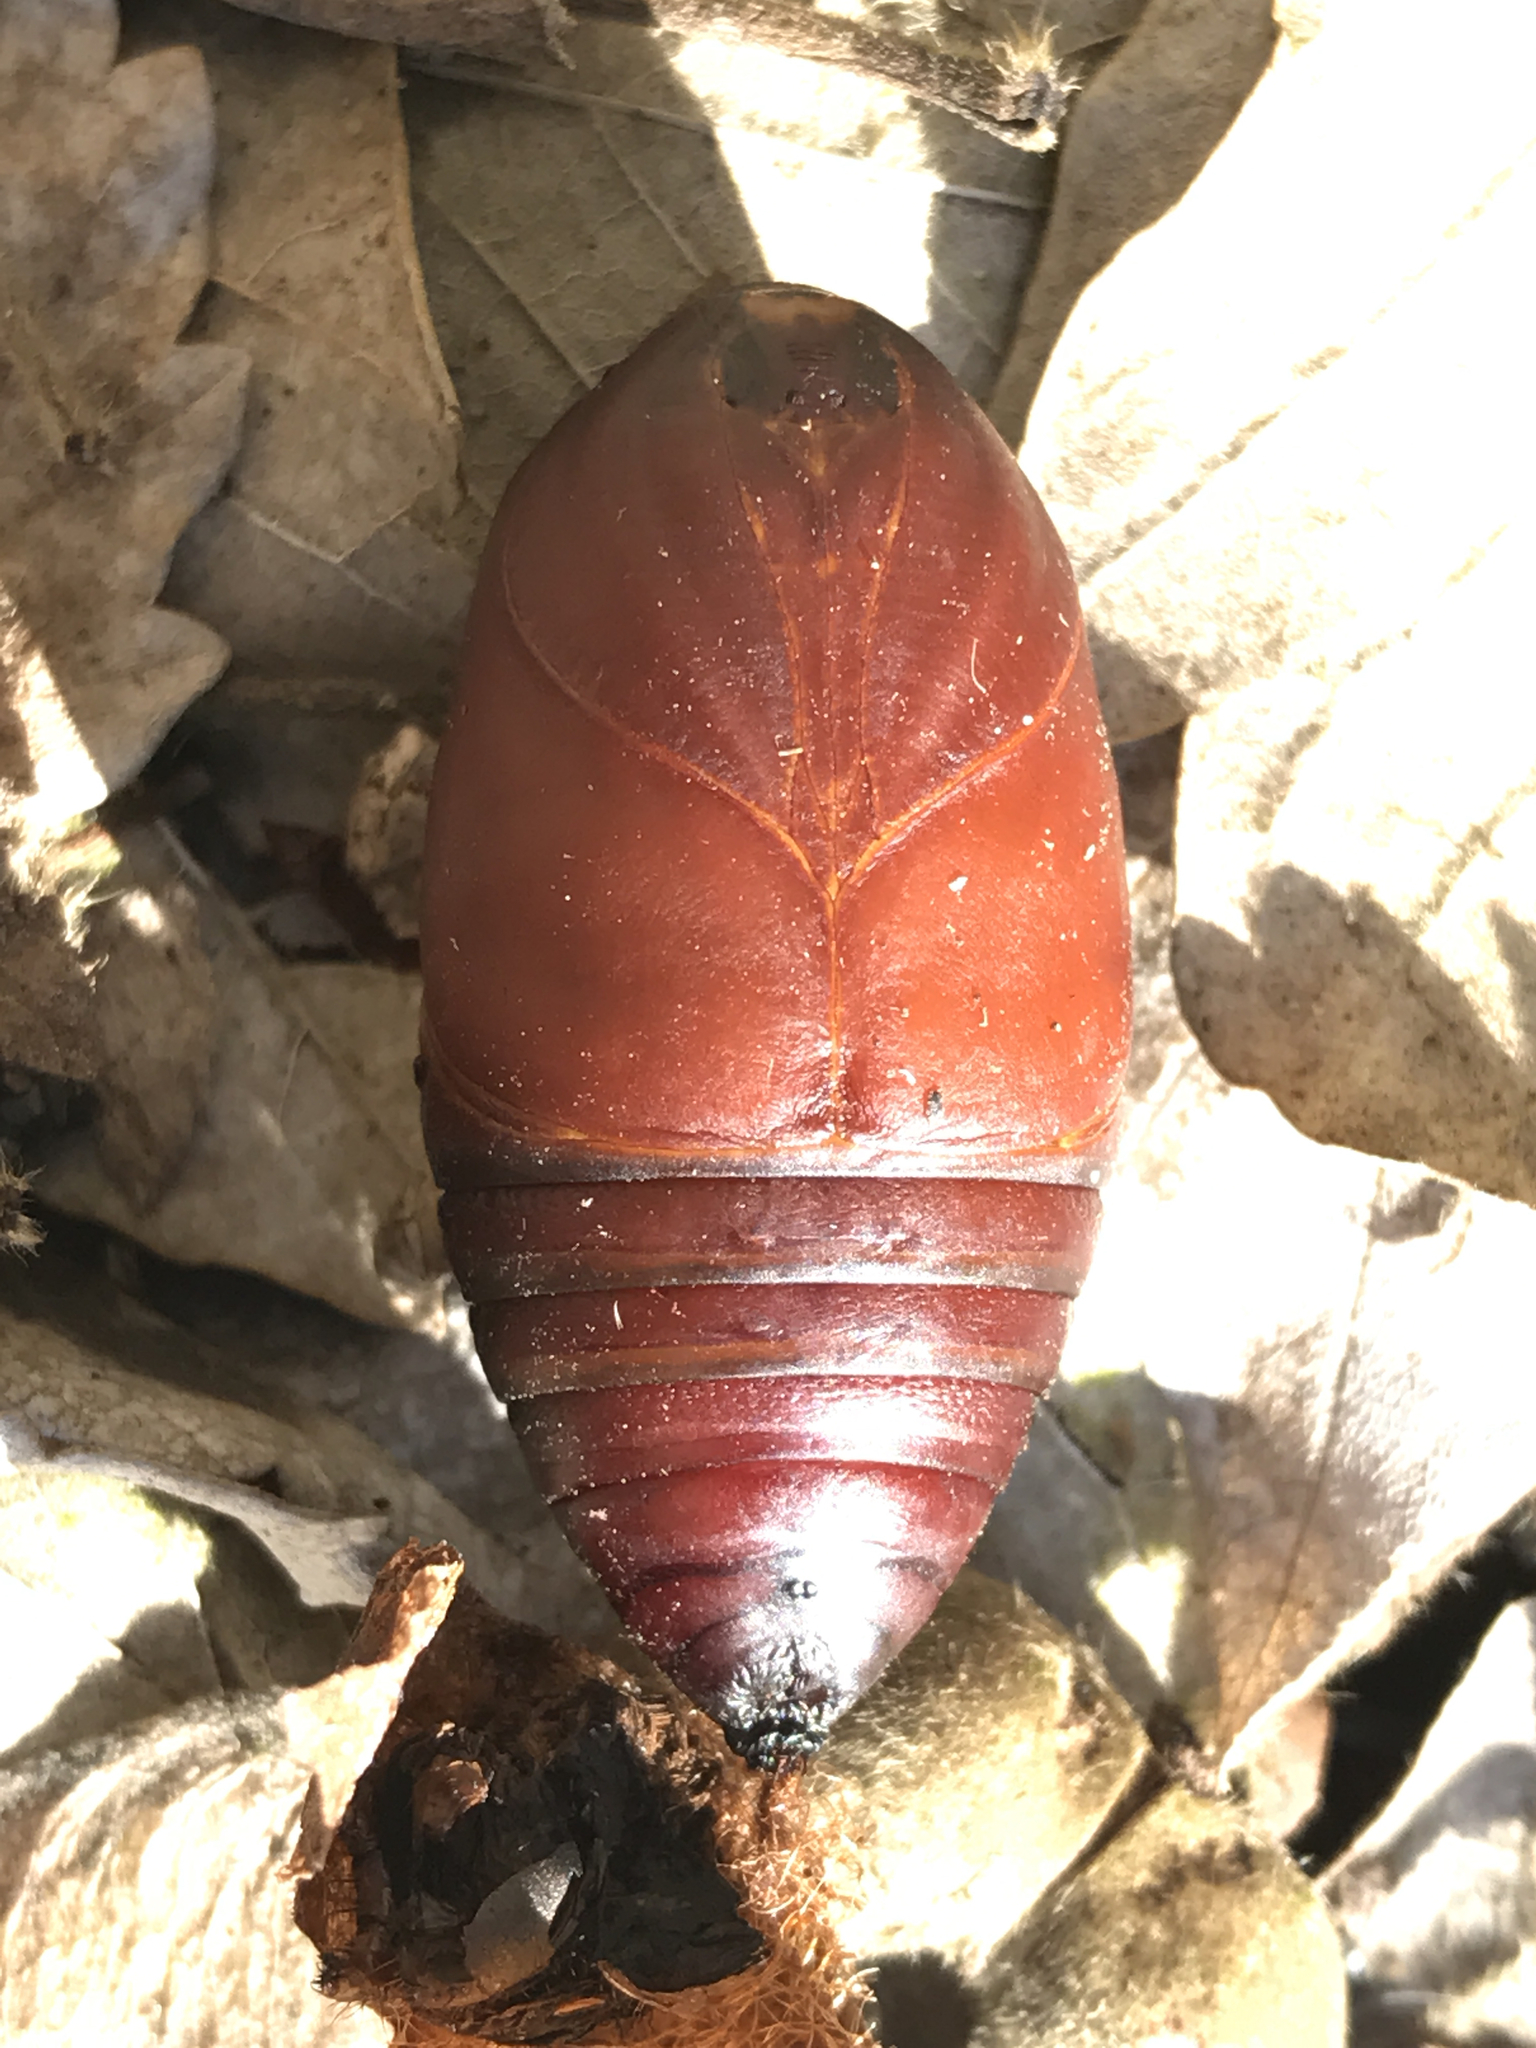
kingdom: Animalia
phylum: Arthropoda
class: Insecta
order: Lepidoptera
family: Saturniidae
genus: Actias
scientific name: Actias luna
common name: Luna moth
